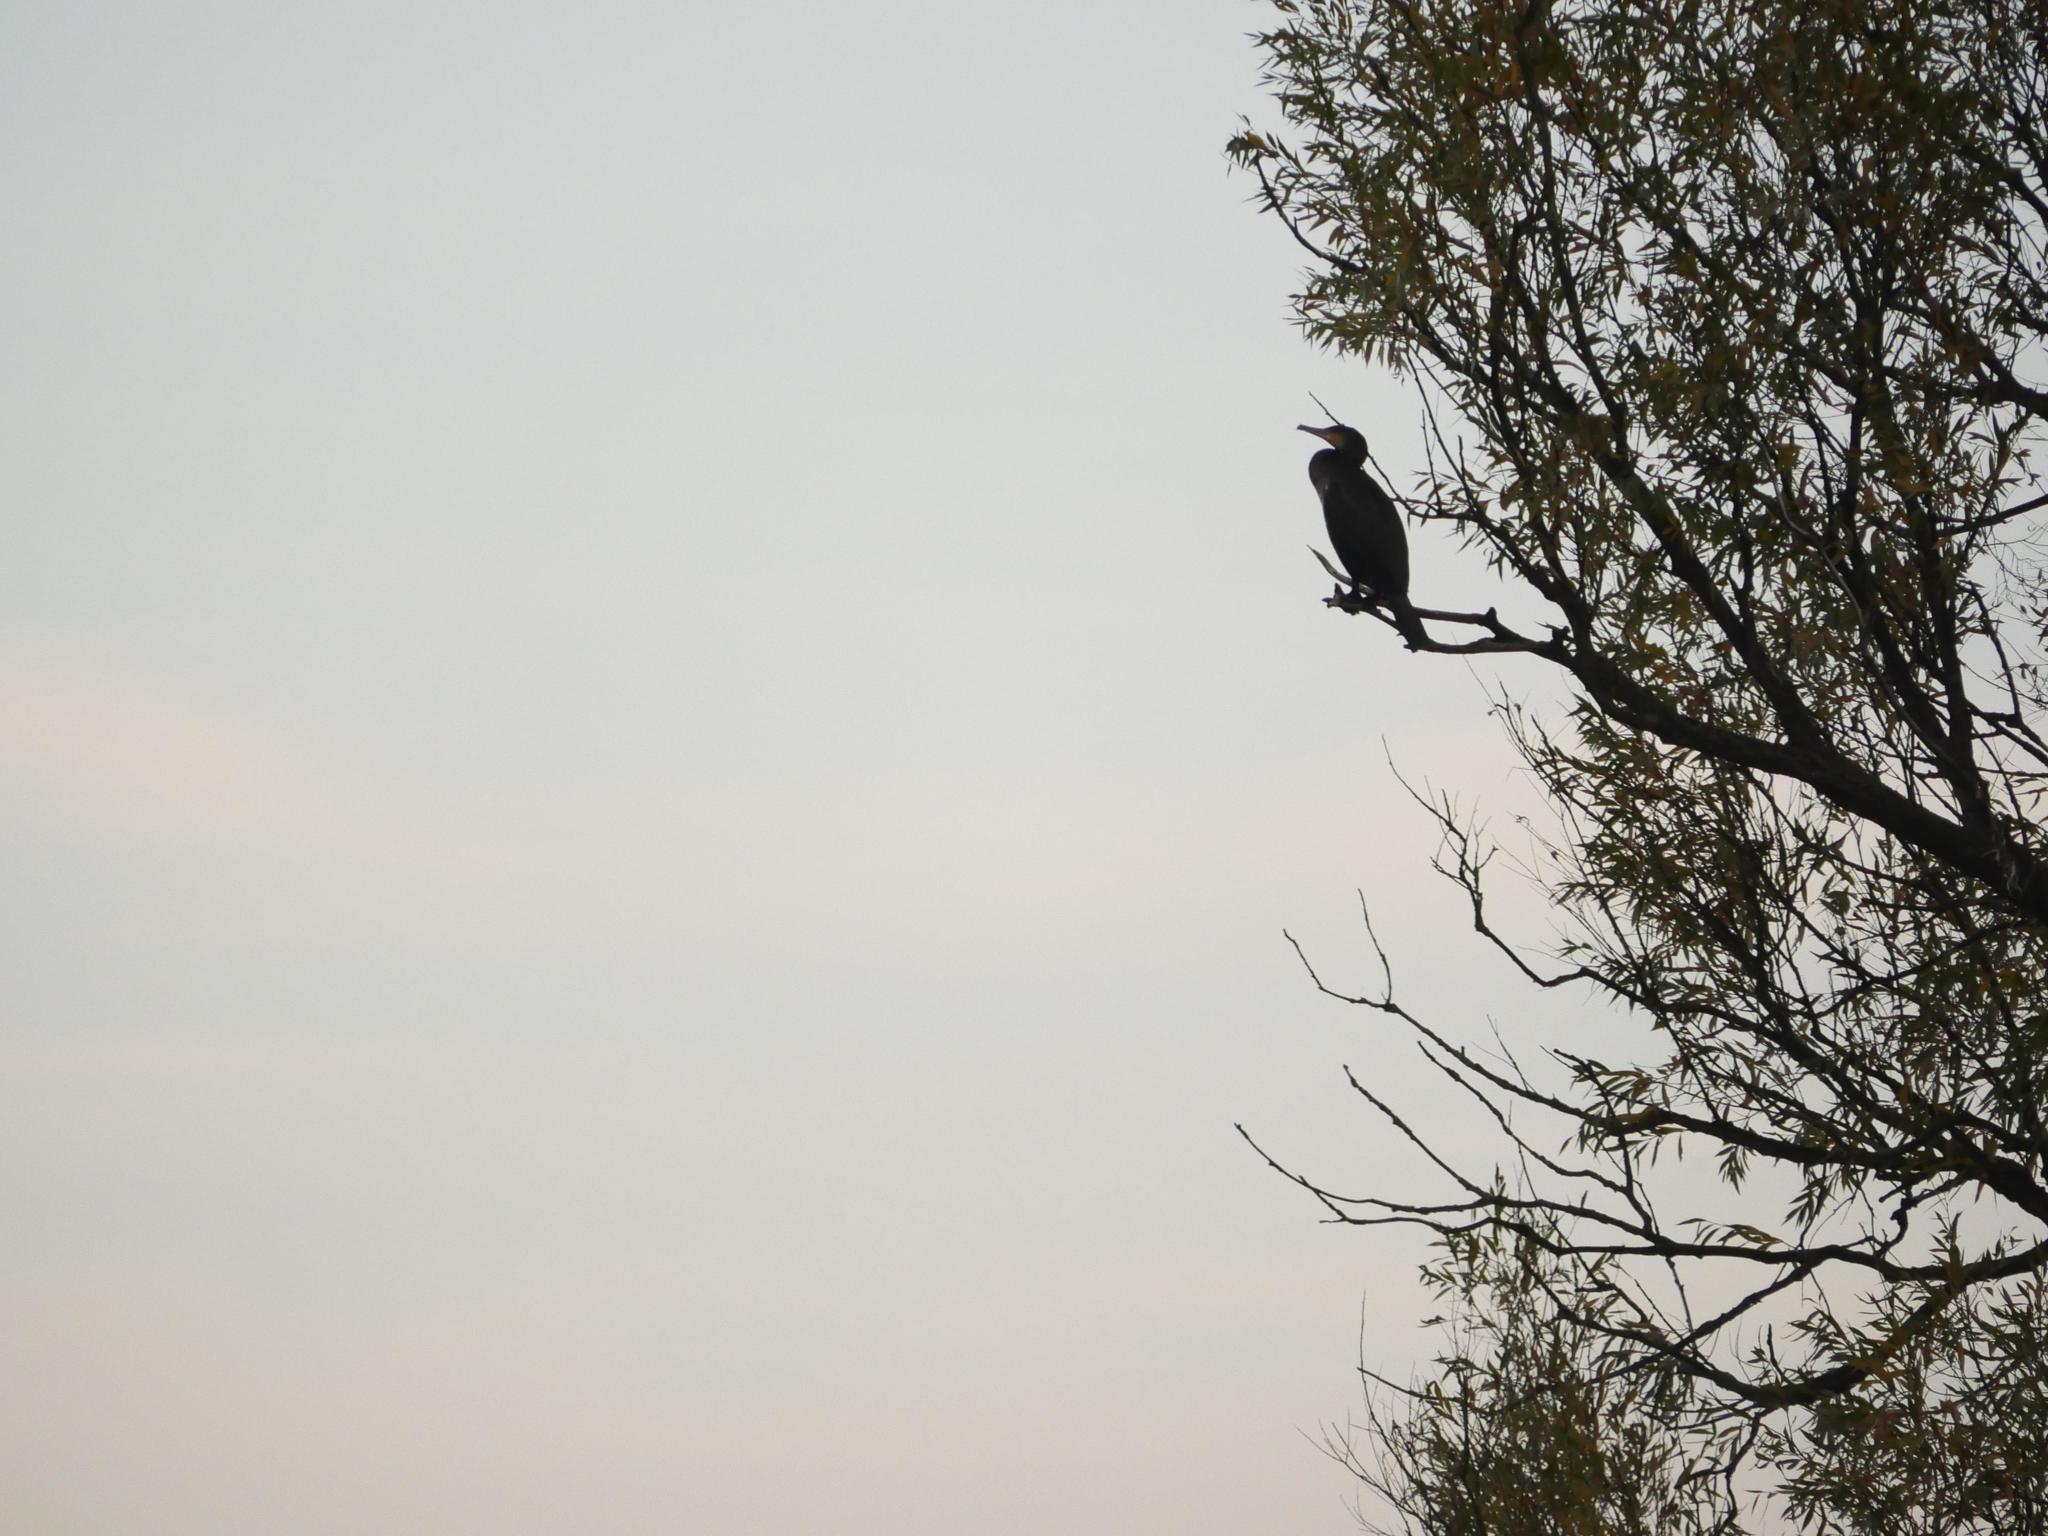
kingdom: Animalia
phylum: Chordata
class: Aves
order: Suliformes
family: Phalacrocoracidae
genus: Phalacrocorax
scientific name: Phalacrocorax carbo
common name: Great cormorant
